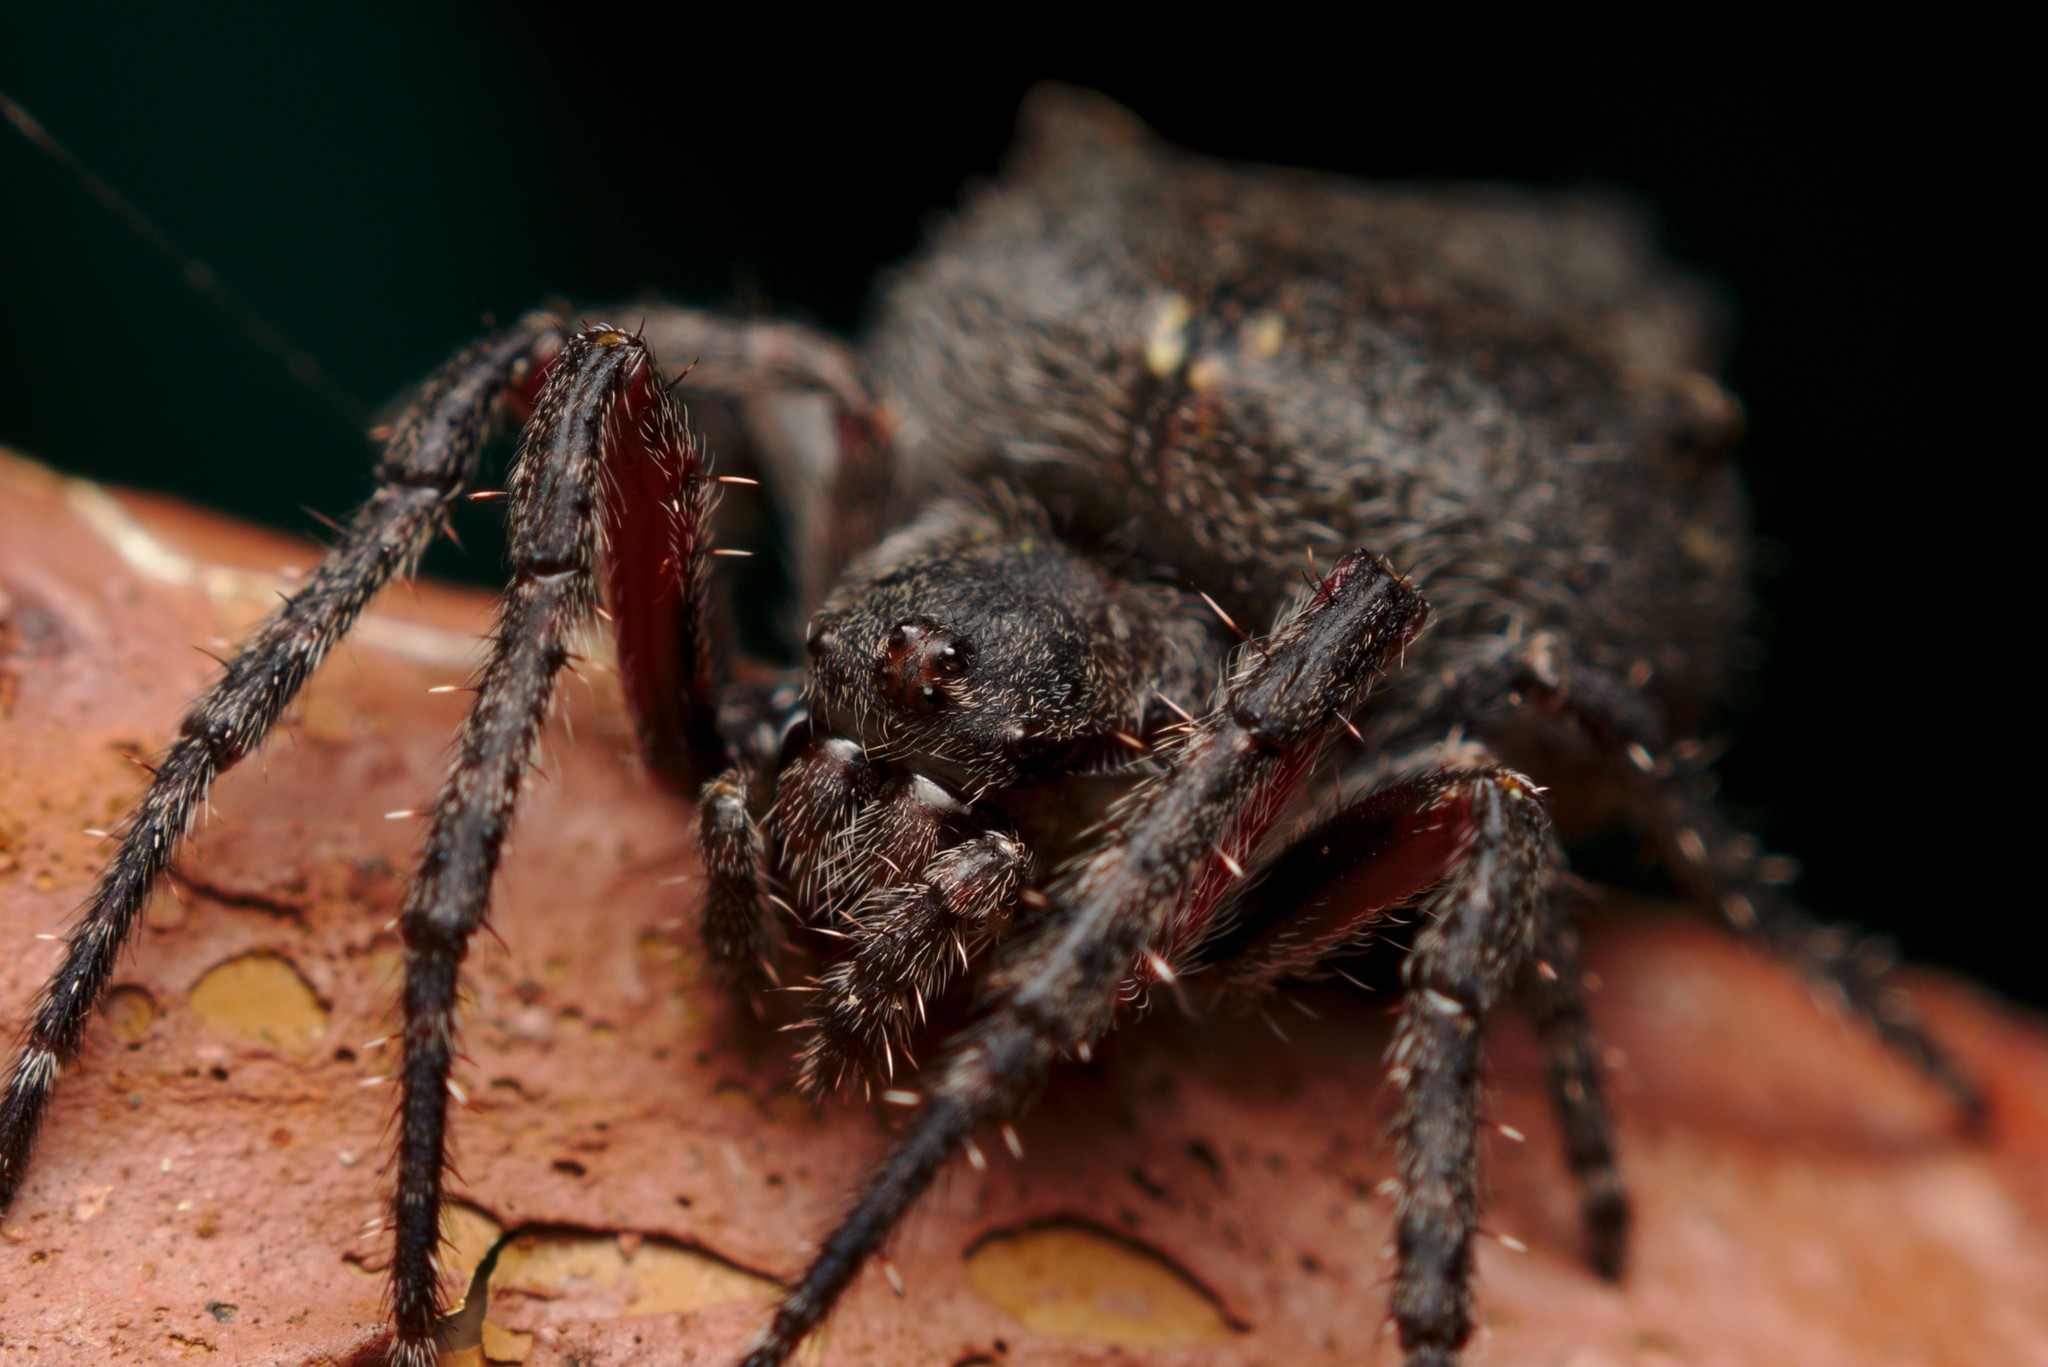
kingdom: Animalia
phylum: Arthropoda
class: Arachnida
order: Araneae
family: Araneidae
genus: Eriophora
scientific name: Eriophora pustulosa
